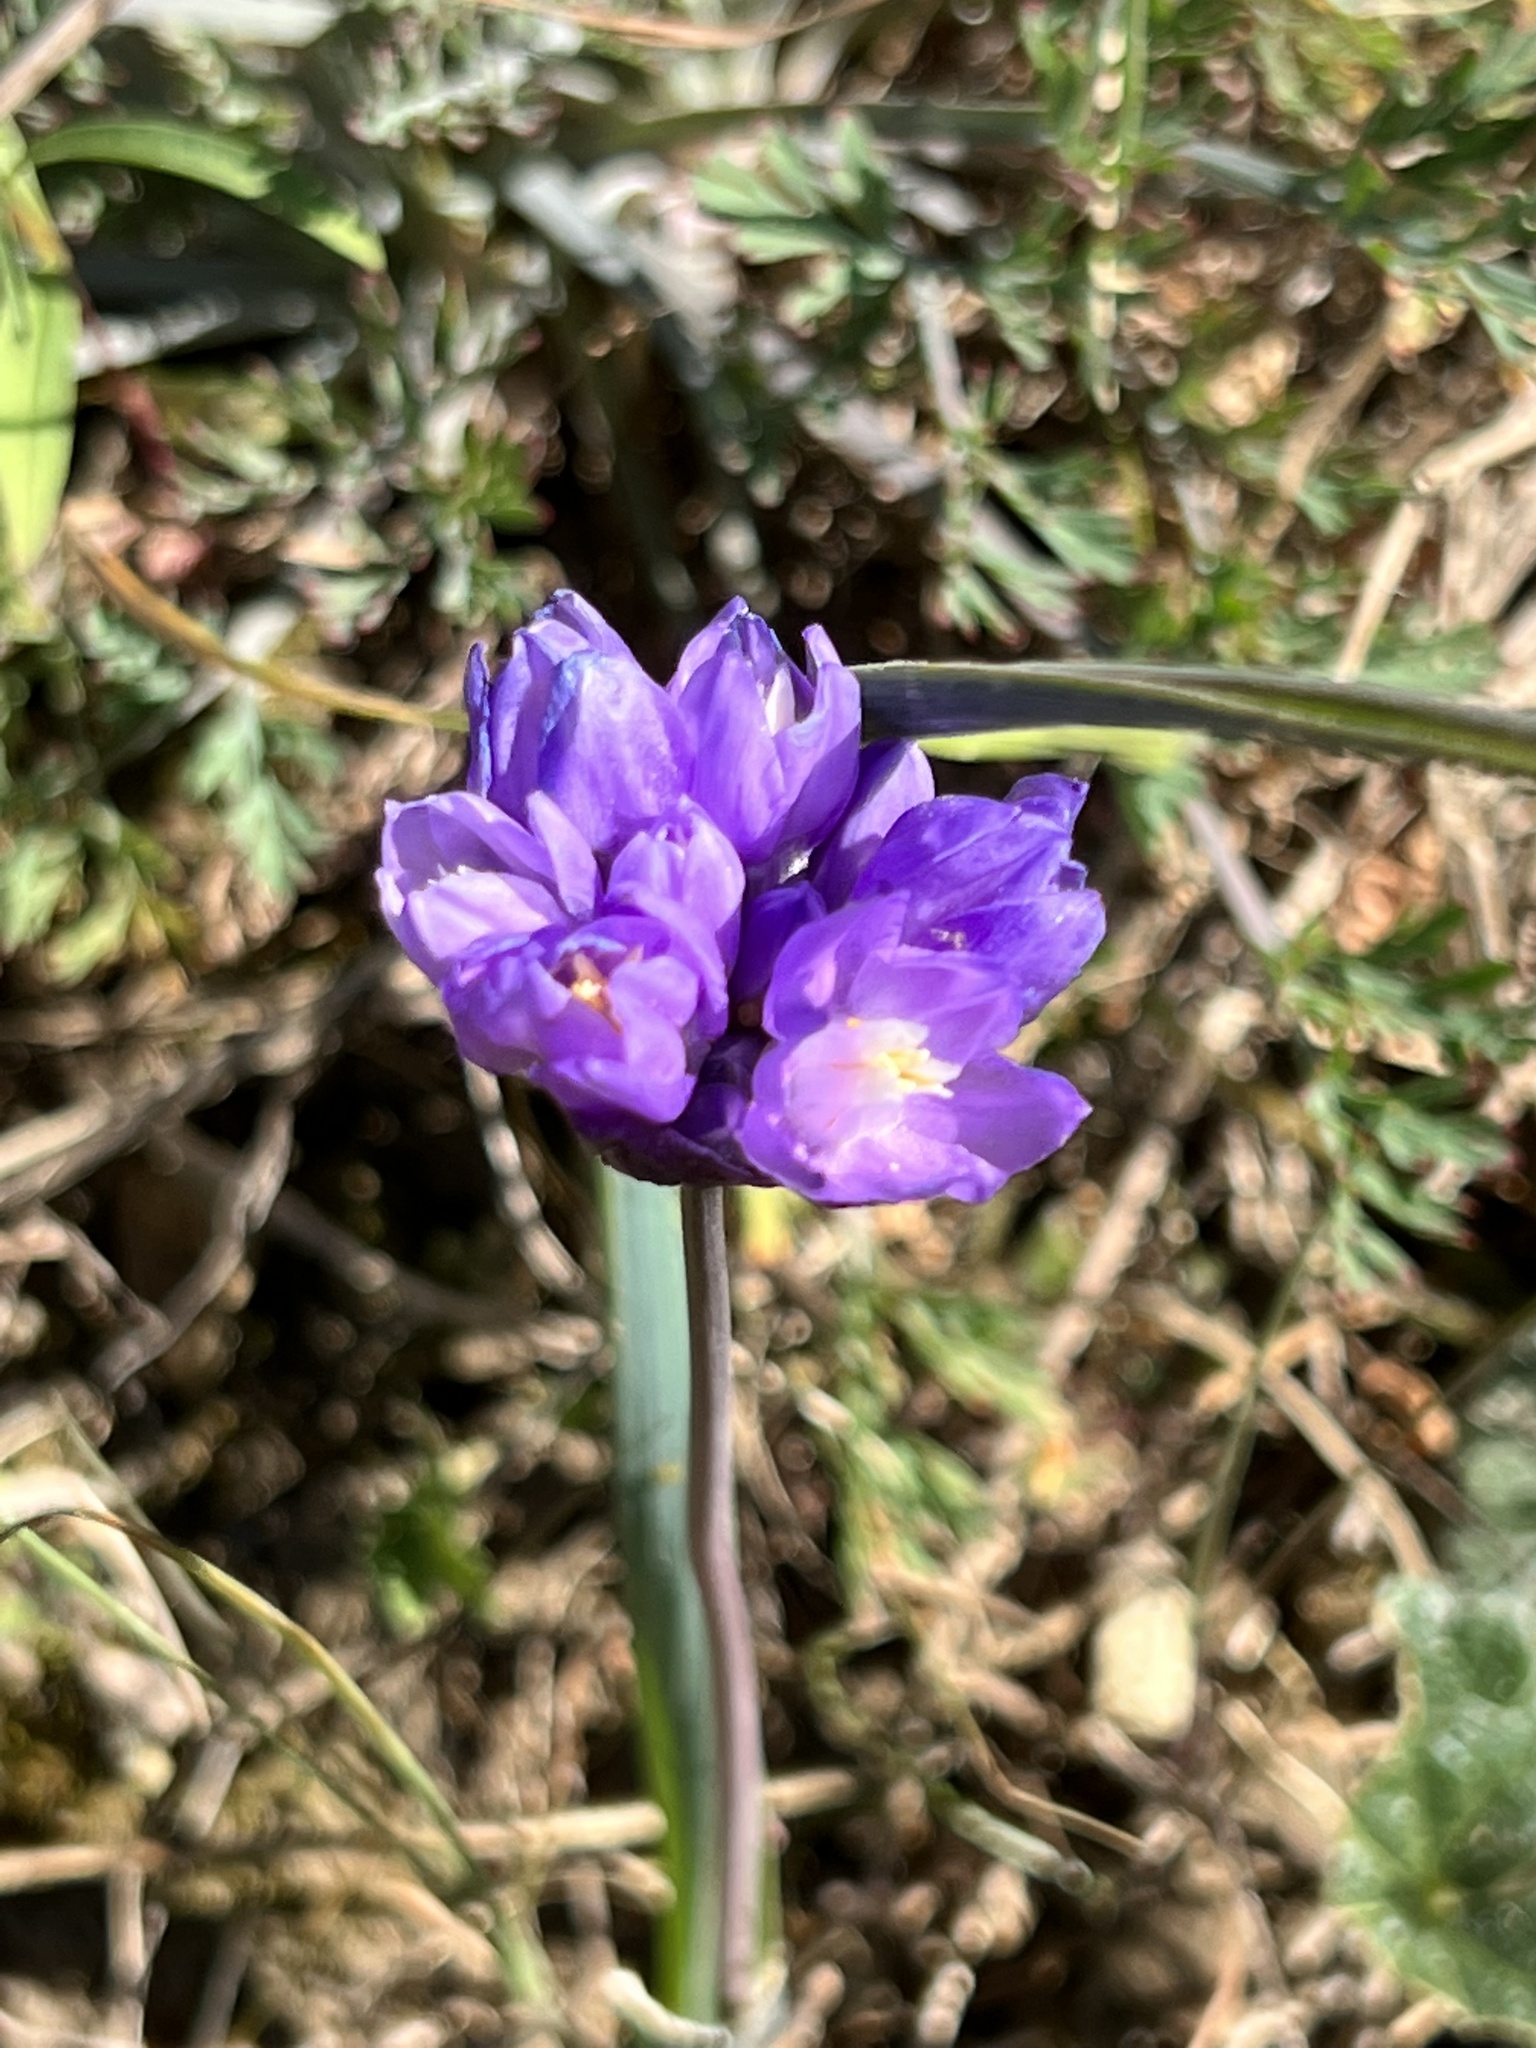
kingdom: Plantae
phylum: Tracheophyta
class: Liliopsida
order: Asparagales
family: Asparagaceae
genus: Dipterostemon
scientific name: Dipterostemon capitatus
